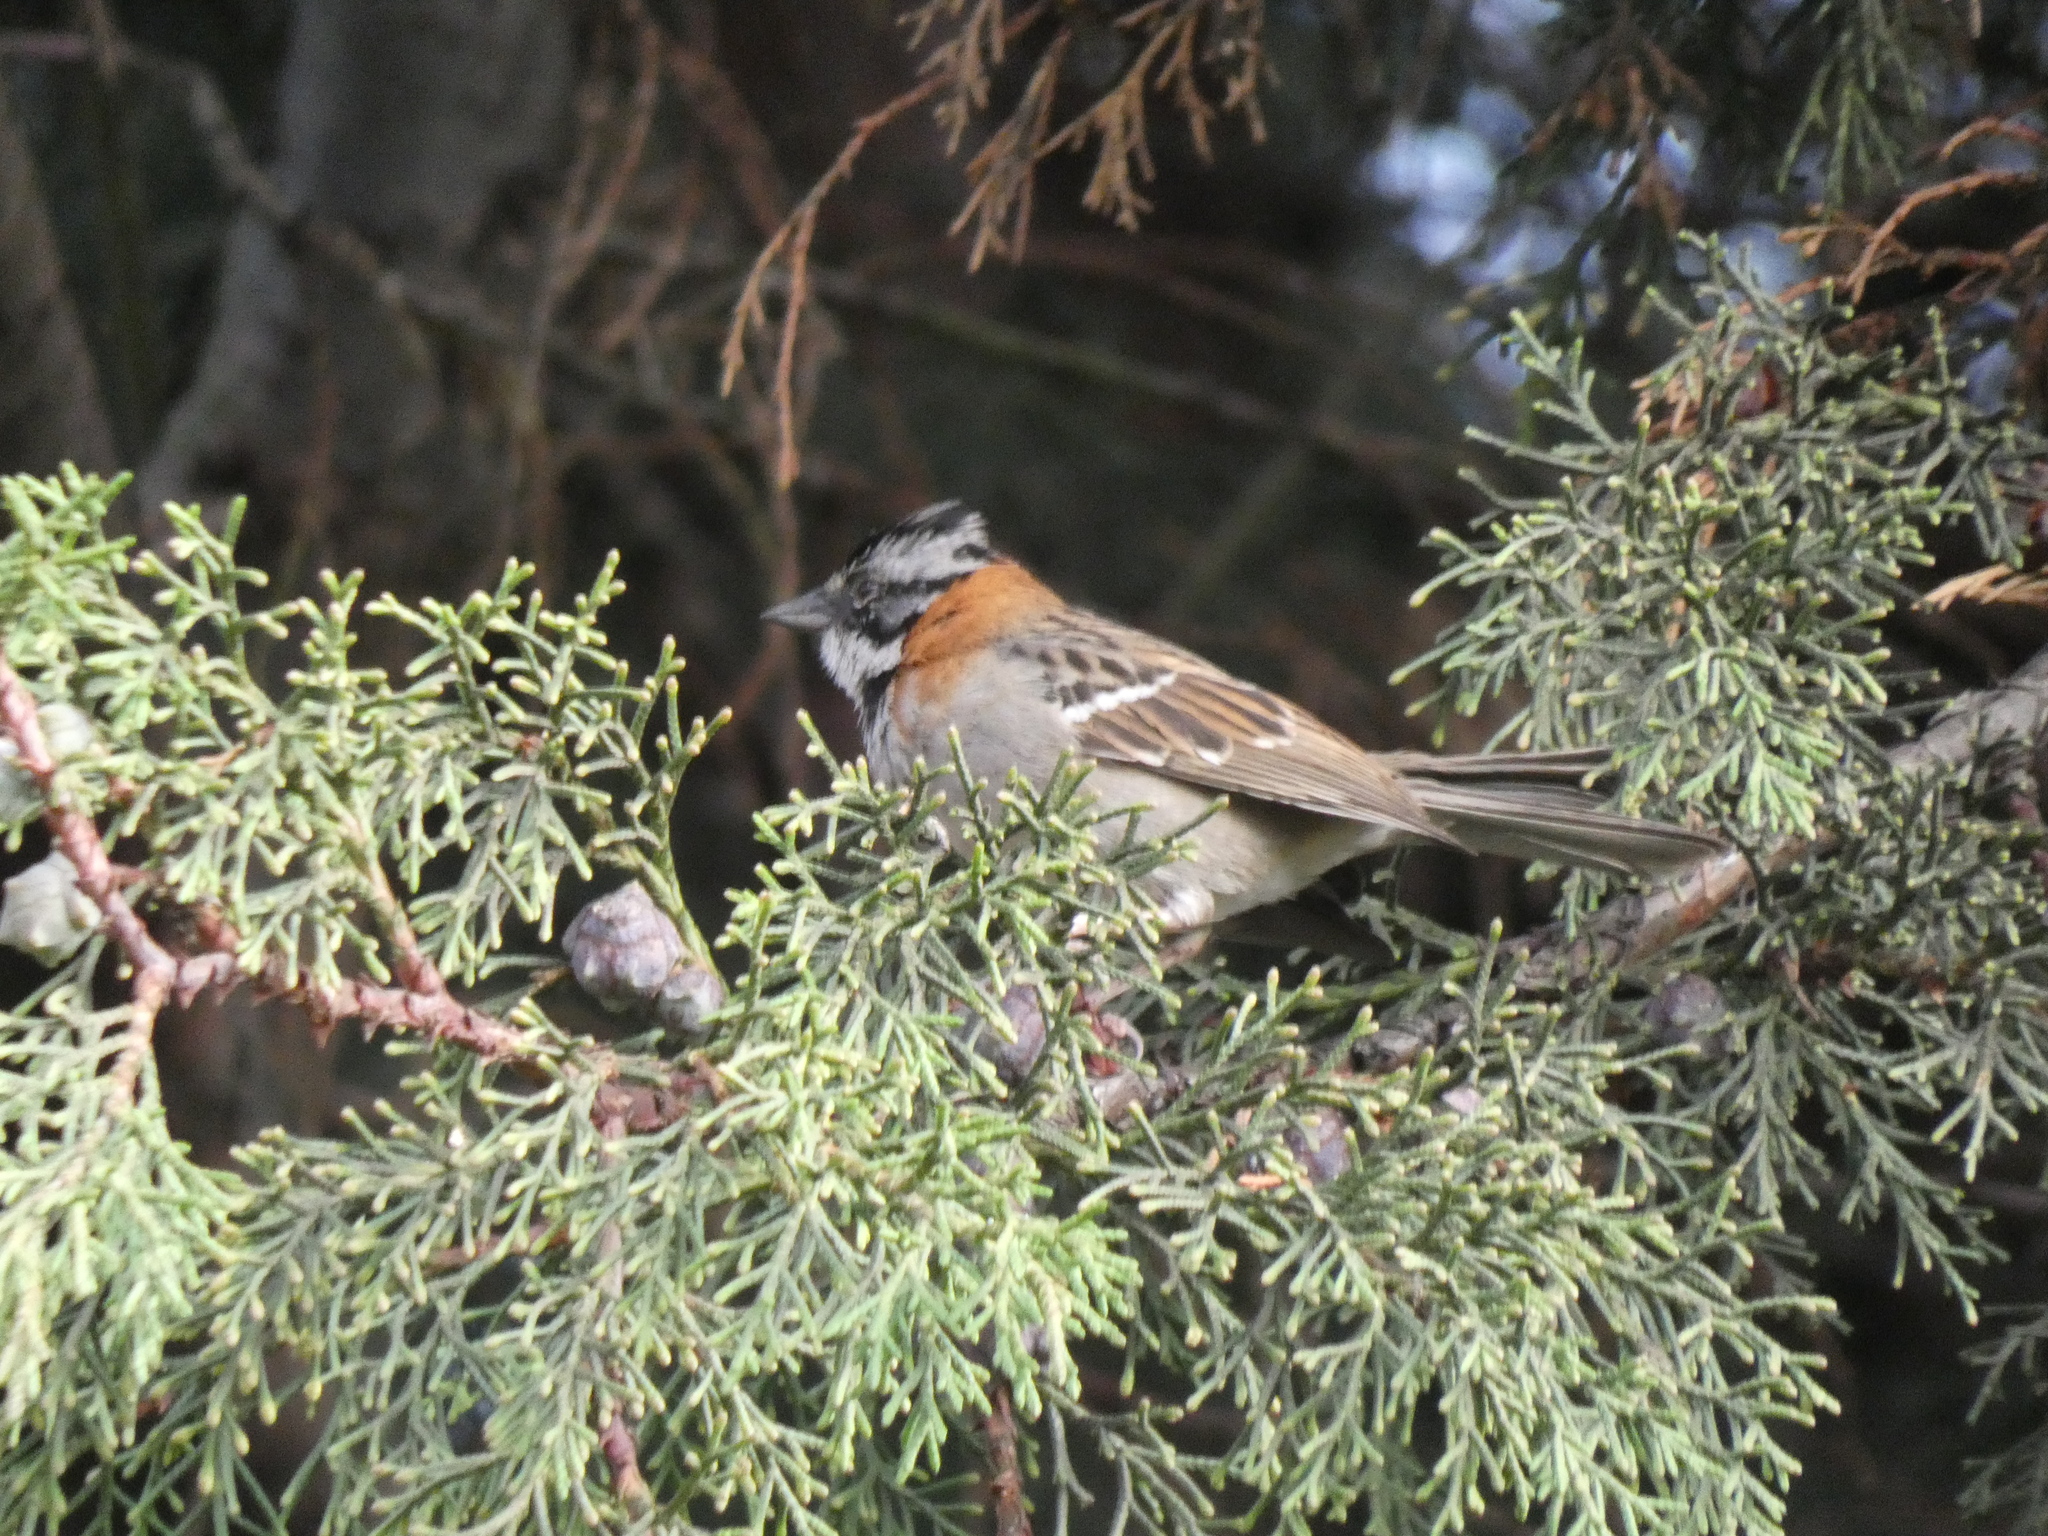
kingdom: Animalia
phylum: Chordata
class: Aves
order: Passeriformes
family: Passerellidae
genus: Zonotrichia
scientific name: Zonotrichia capensis
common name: Rufous-collared sparrow
